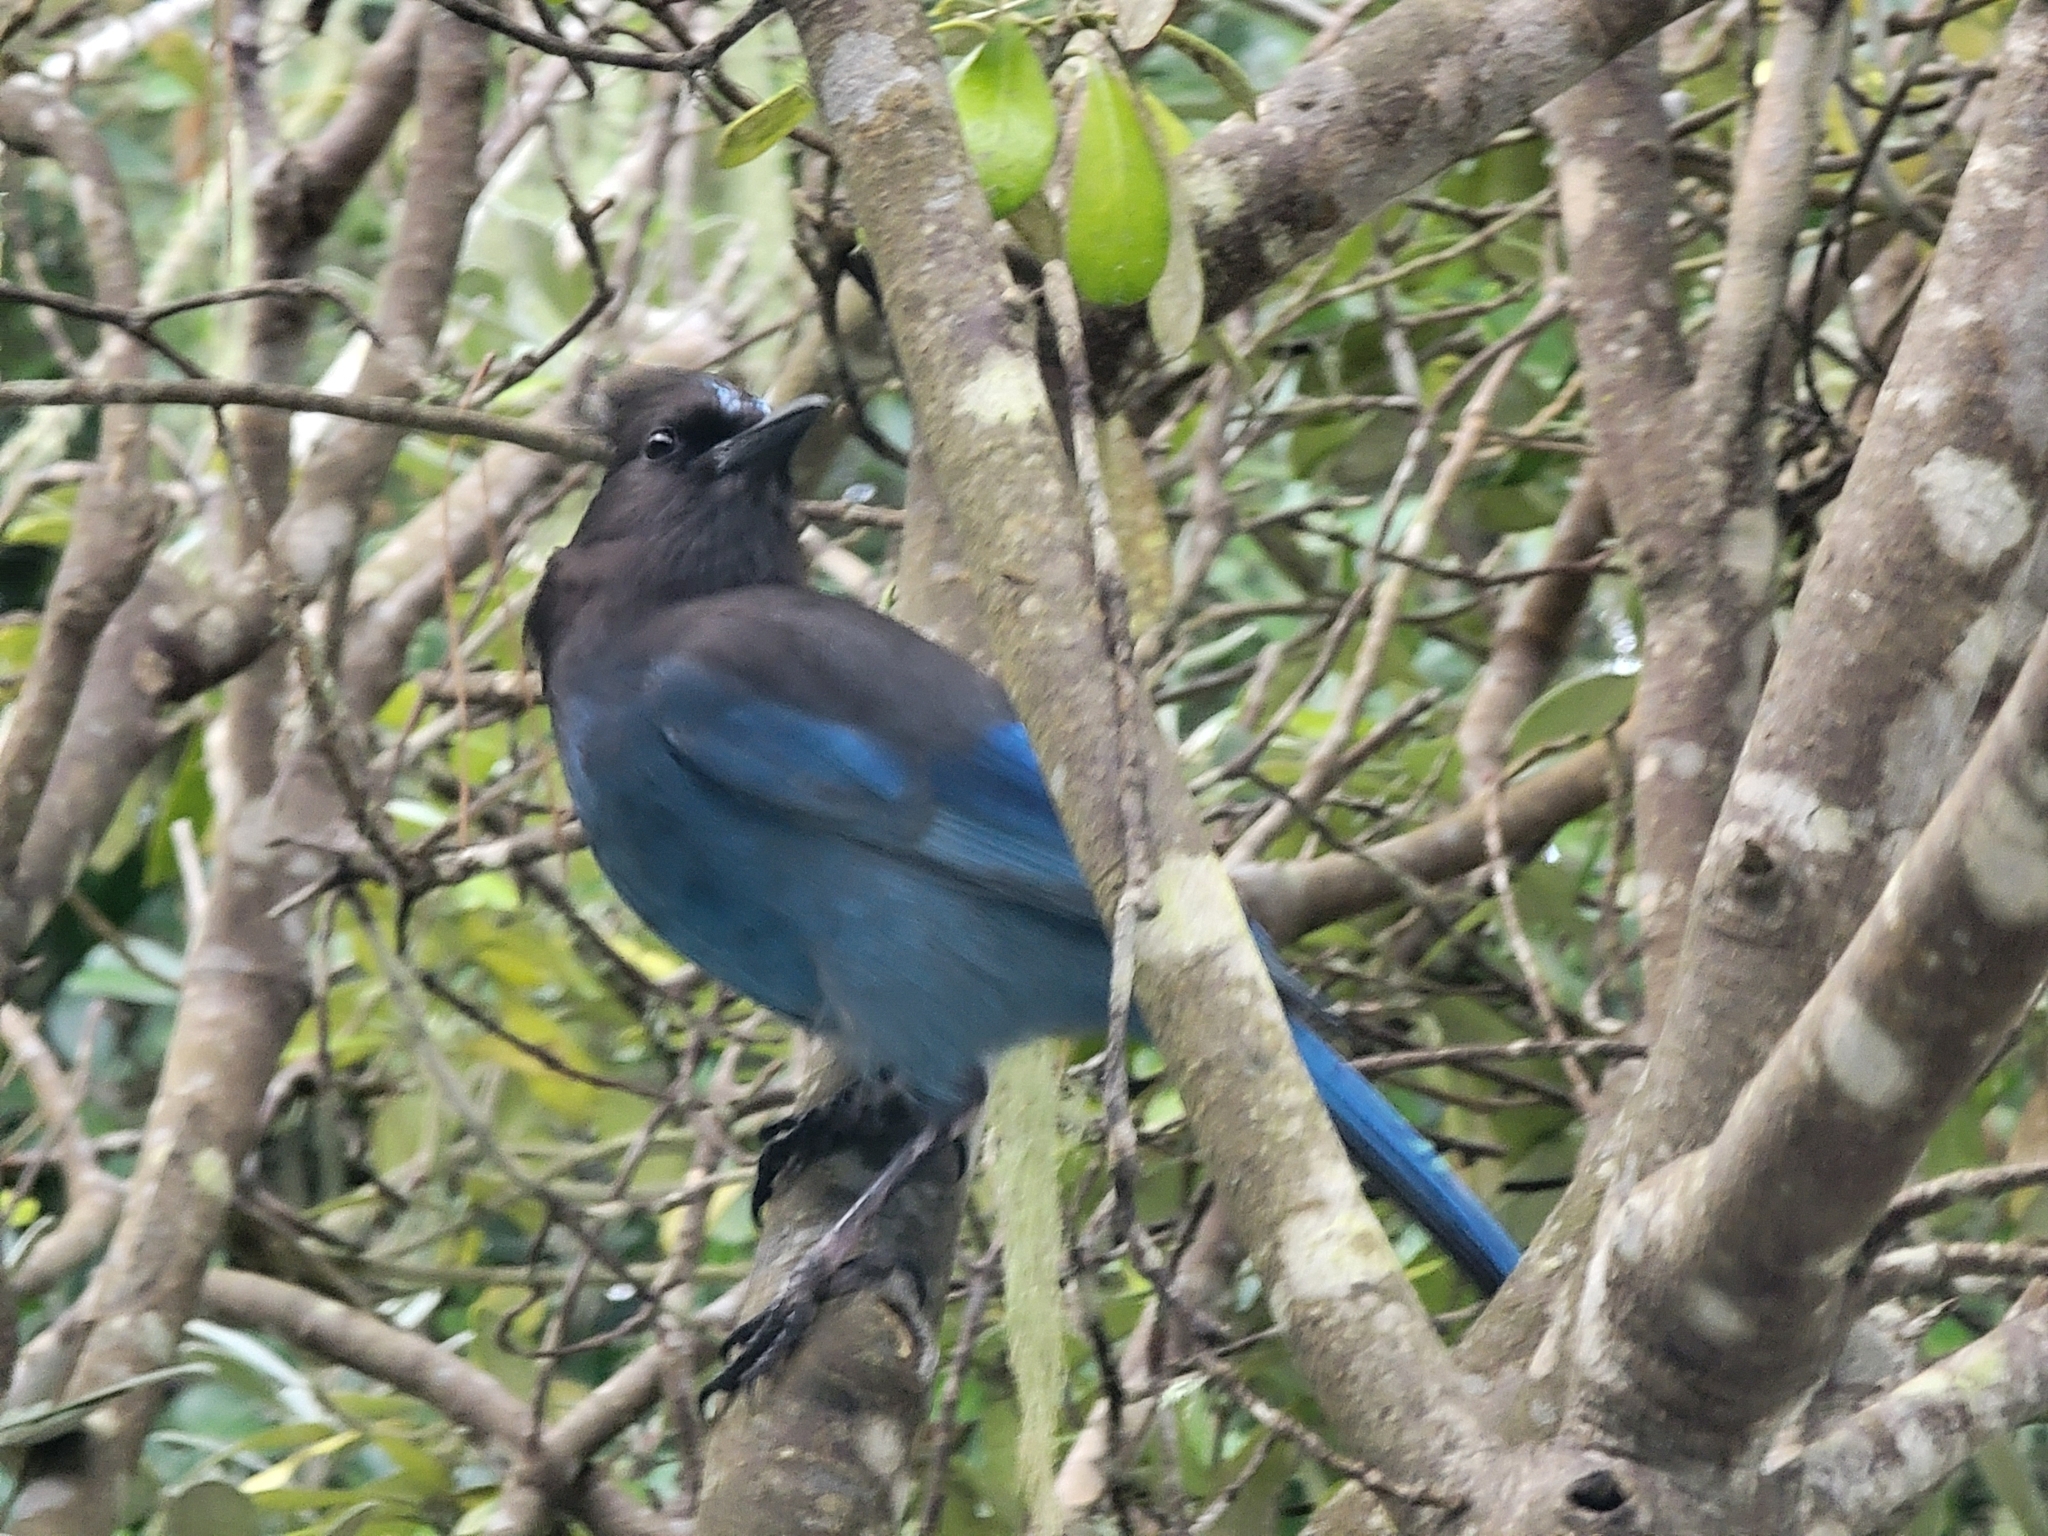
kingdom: Animalia
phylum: Chordata
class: Aves
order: Passeriformes
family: Corvidae
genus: Cyanocitta
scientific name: Cyanocitta stelleri
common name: Steller's jay
